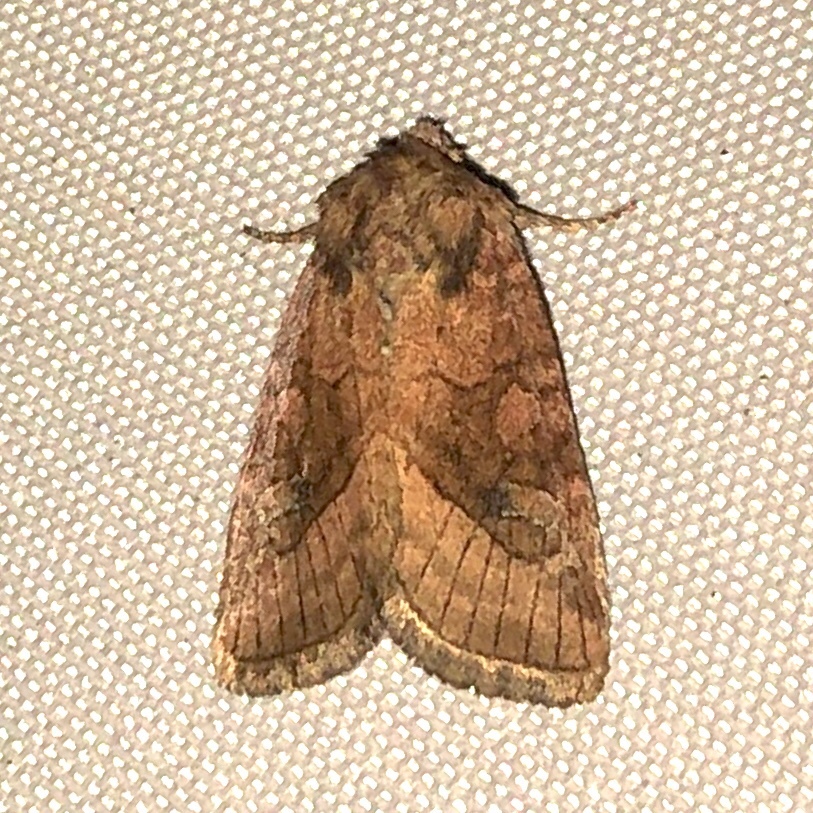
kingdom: Animalia
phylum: Arthropoda
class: Insecta
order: Lepidoptera
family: Noctuidae
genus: Lacinipolia
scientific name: Lacinipolia lorea
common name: Bridled arches moth
